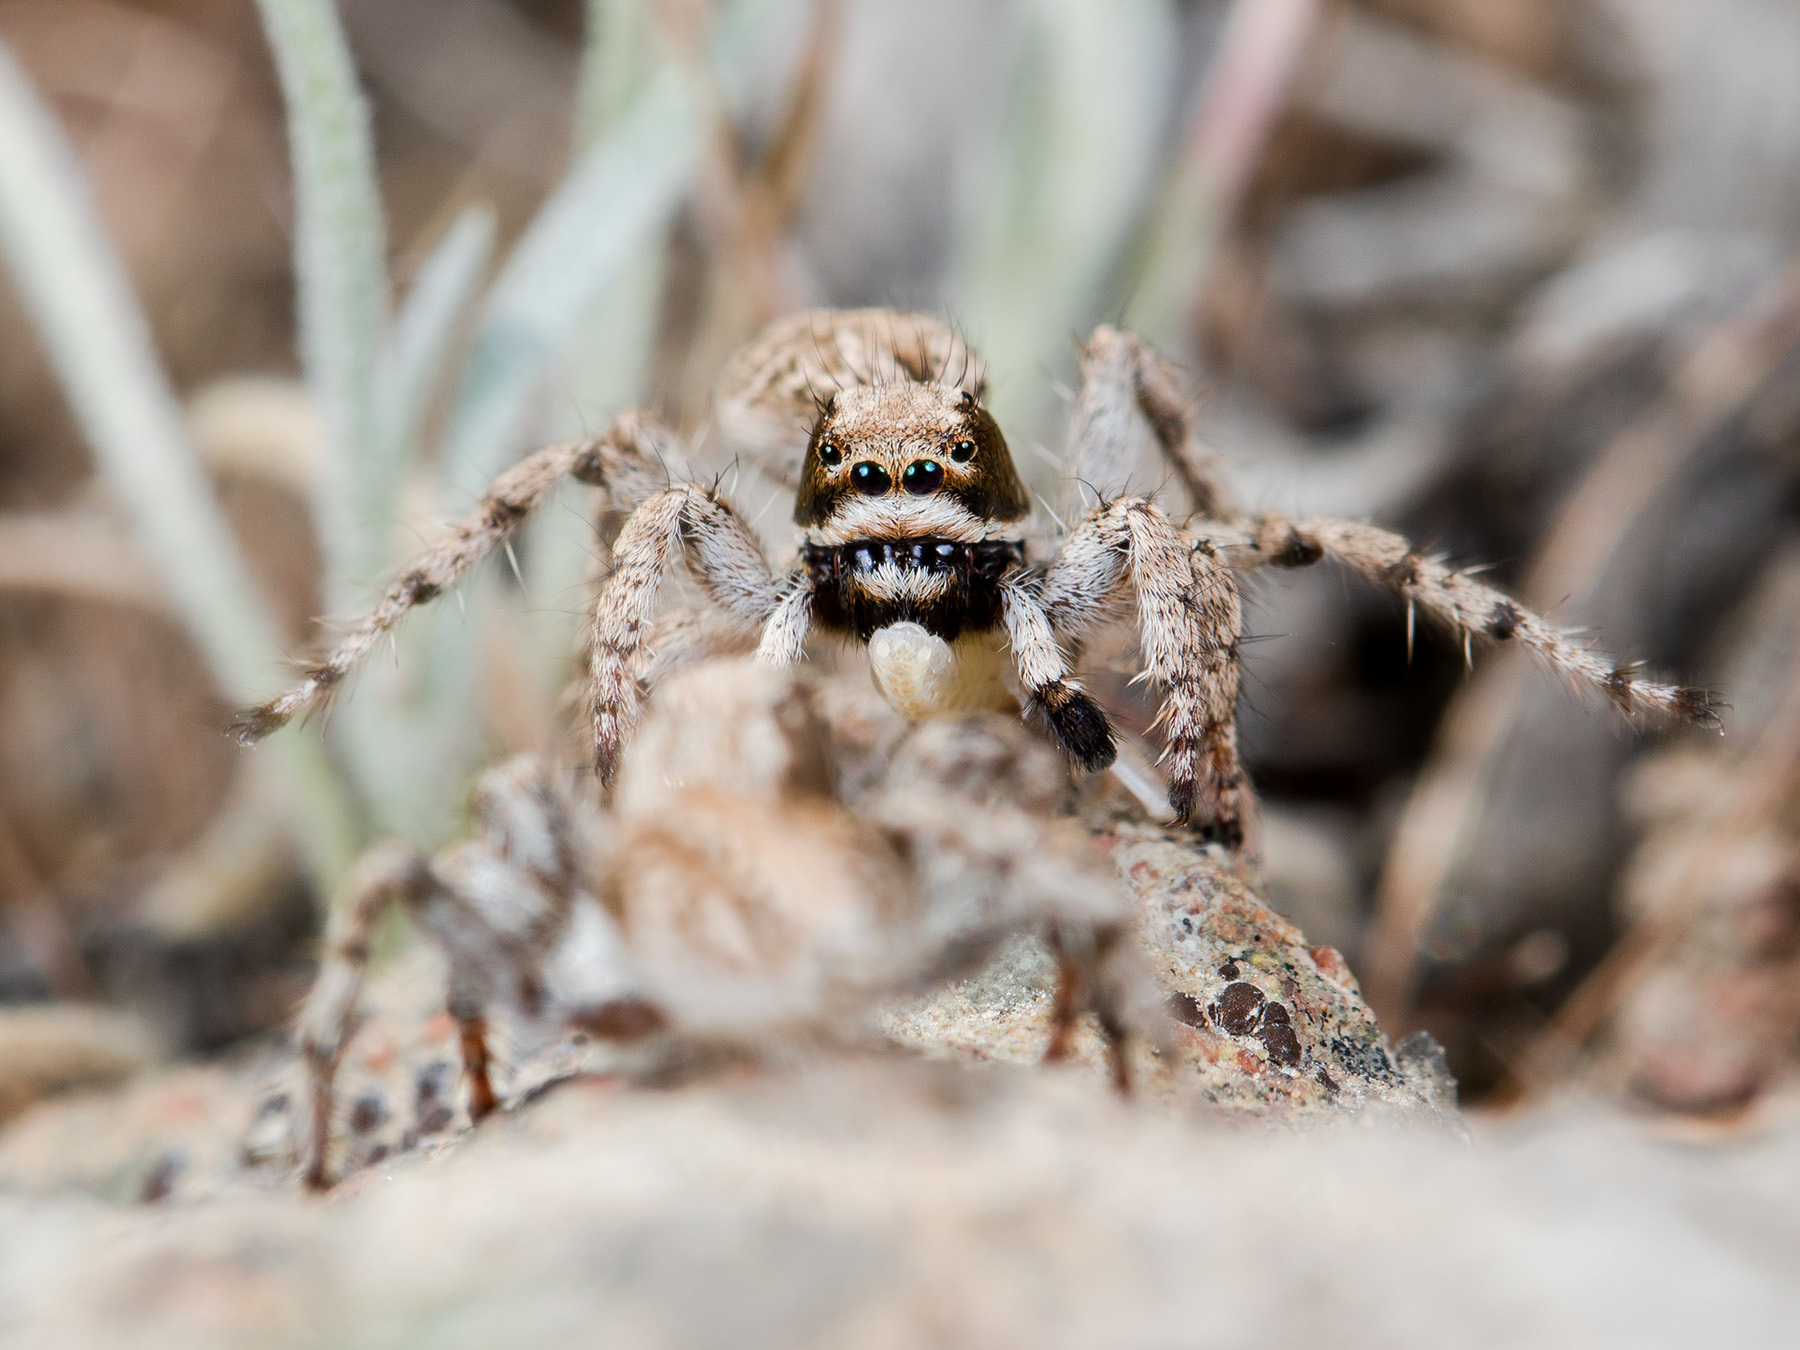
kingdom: Animalia
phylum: Arthropoda
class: Arachnida
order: Araneae
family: Salticidae
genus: Rafalus
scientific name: Rafalus variegatus
